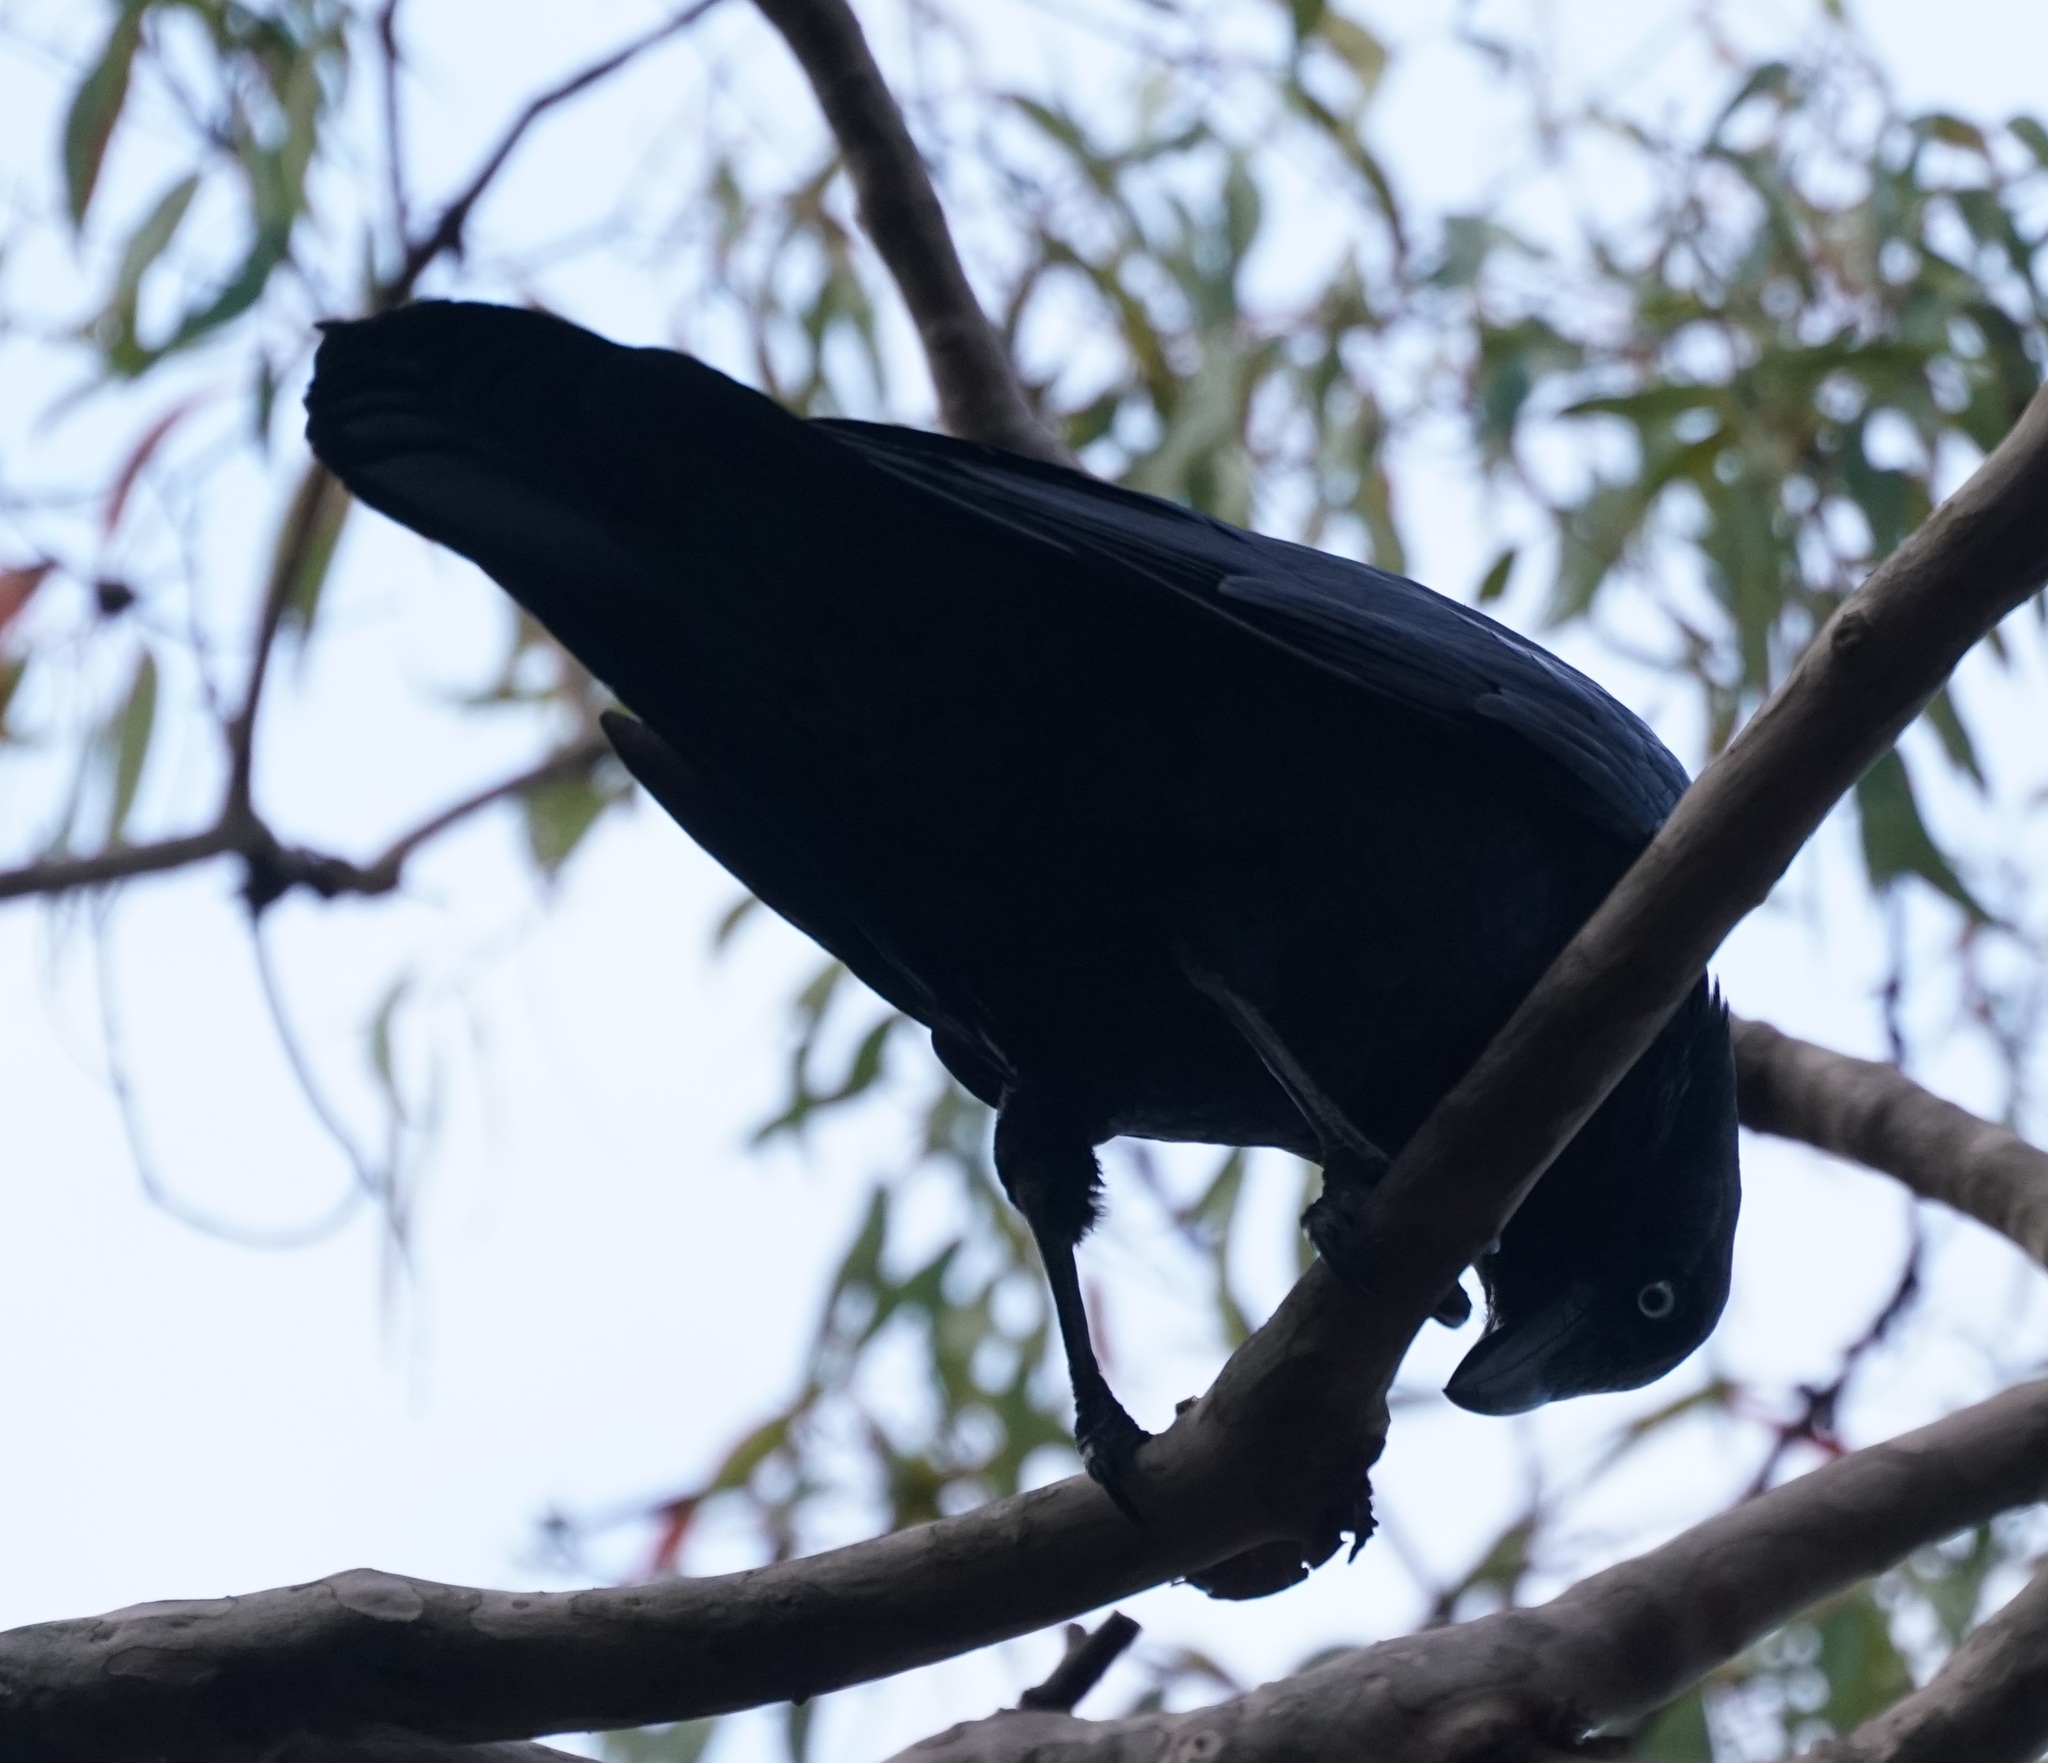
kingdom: Animalia
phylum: Chordata
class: Aves
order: Passeriformes
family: Corvidae
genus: Corvus
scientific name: Corvus coronoides
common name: Australian raven
